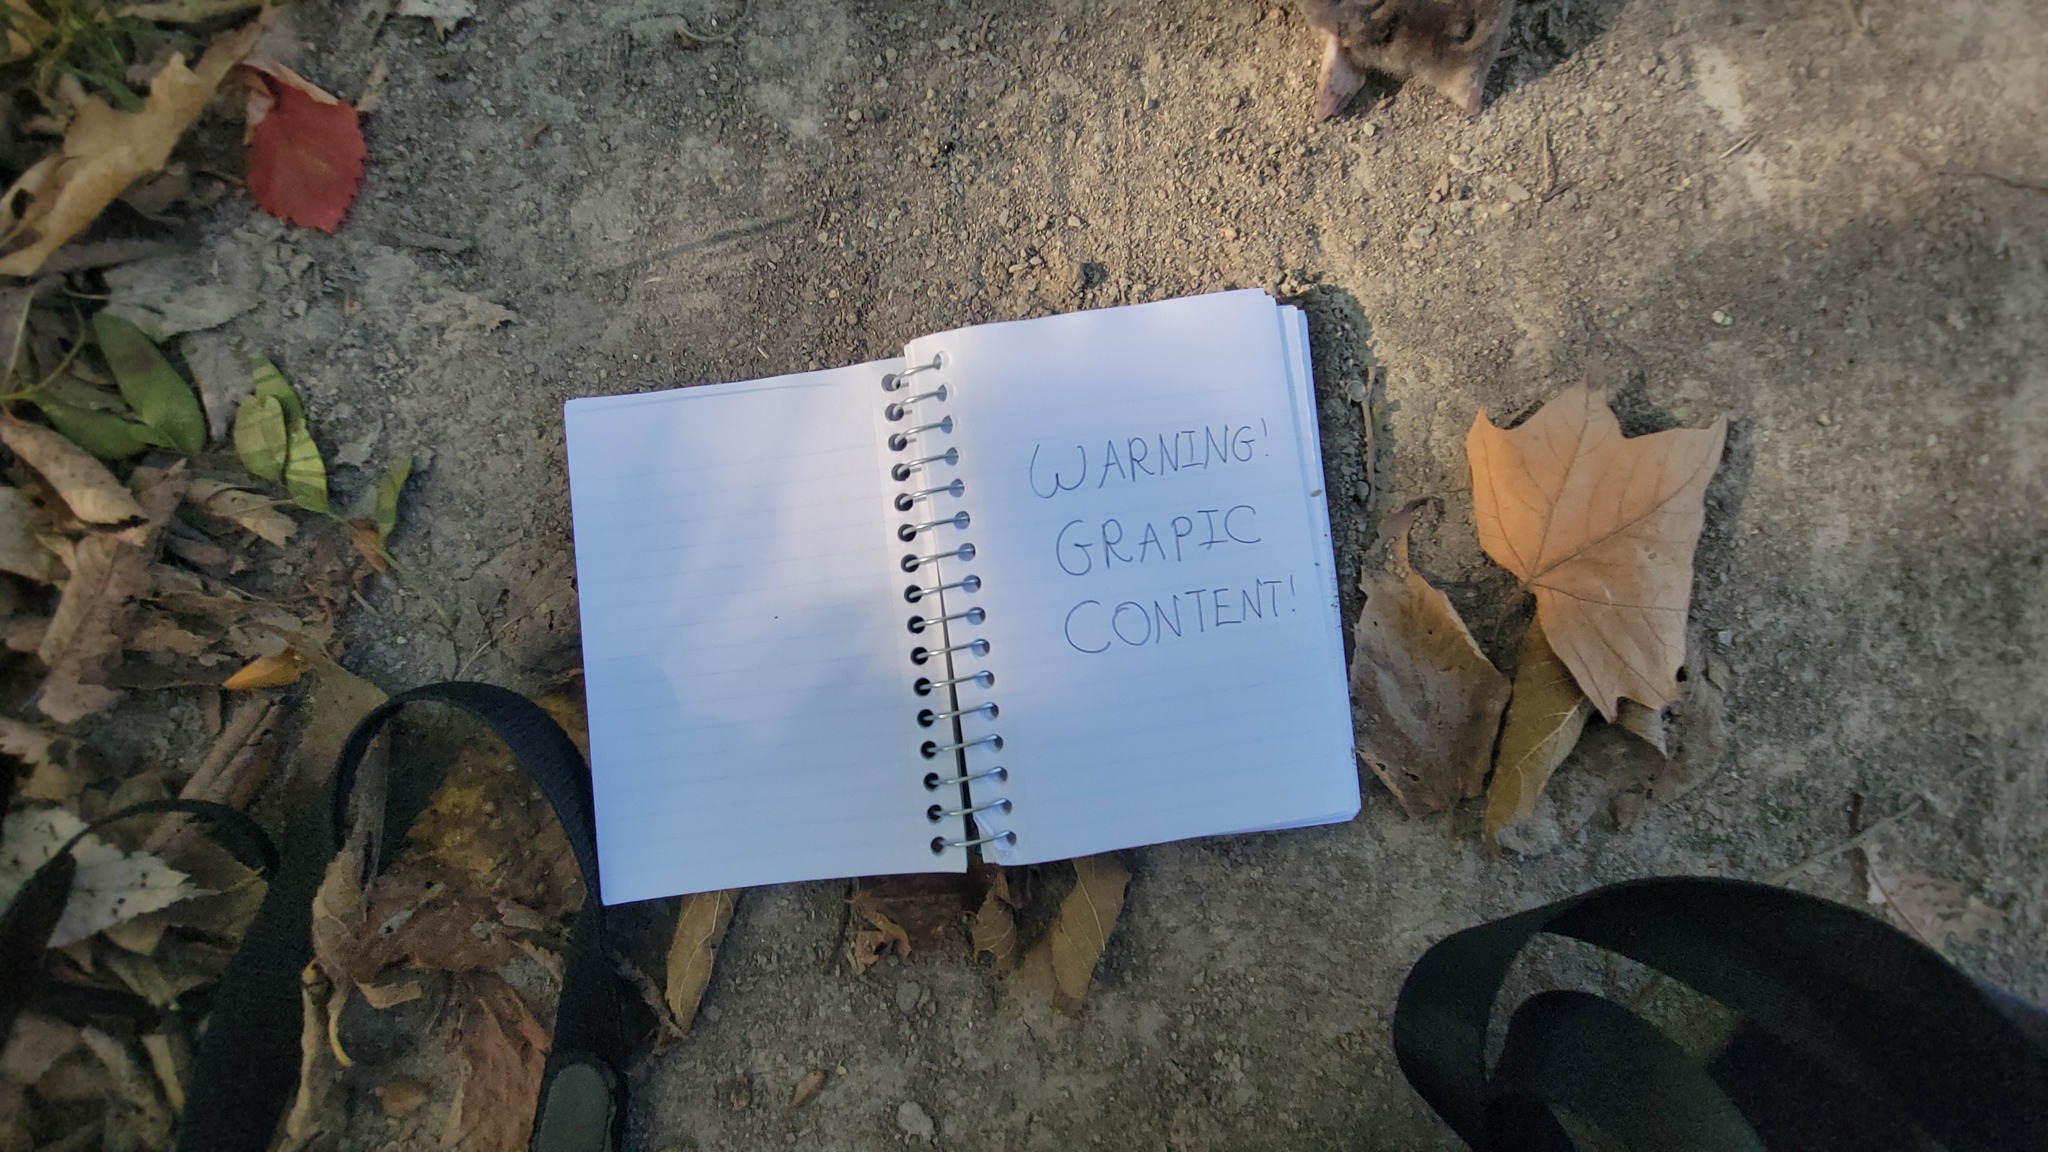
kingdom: Animalia
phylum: Chordata
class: Mammalia
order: Soricomorpha
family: Talpidae
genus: Scalopus
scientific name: Scalopus aquaticus
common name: Eastern mole
